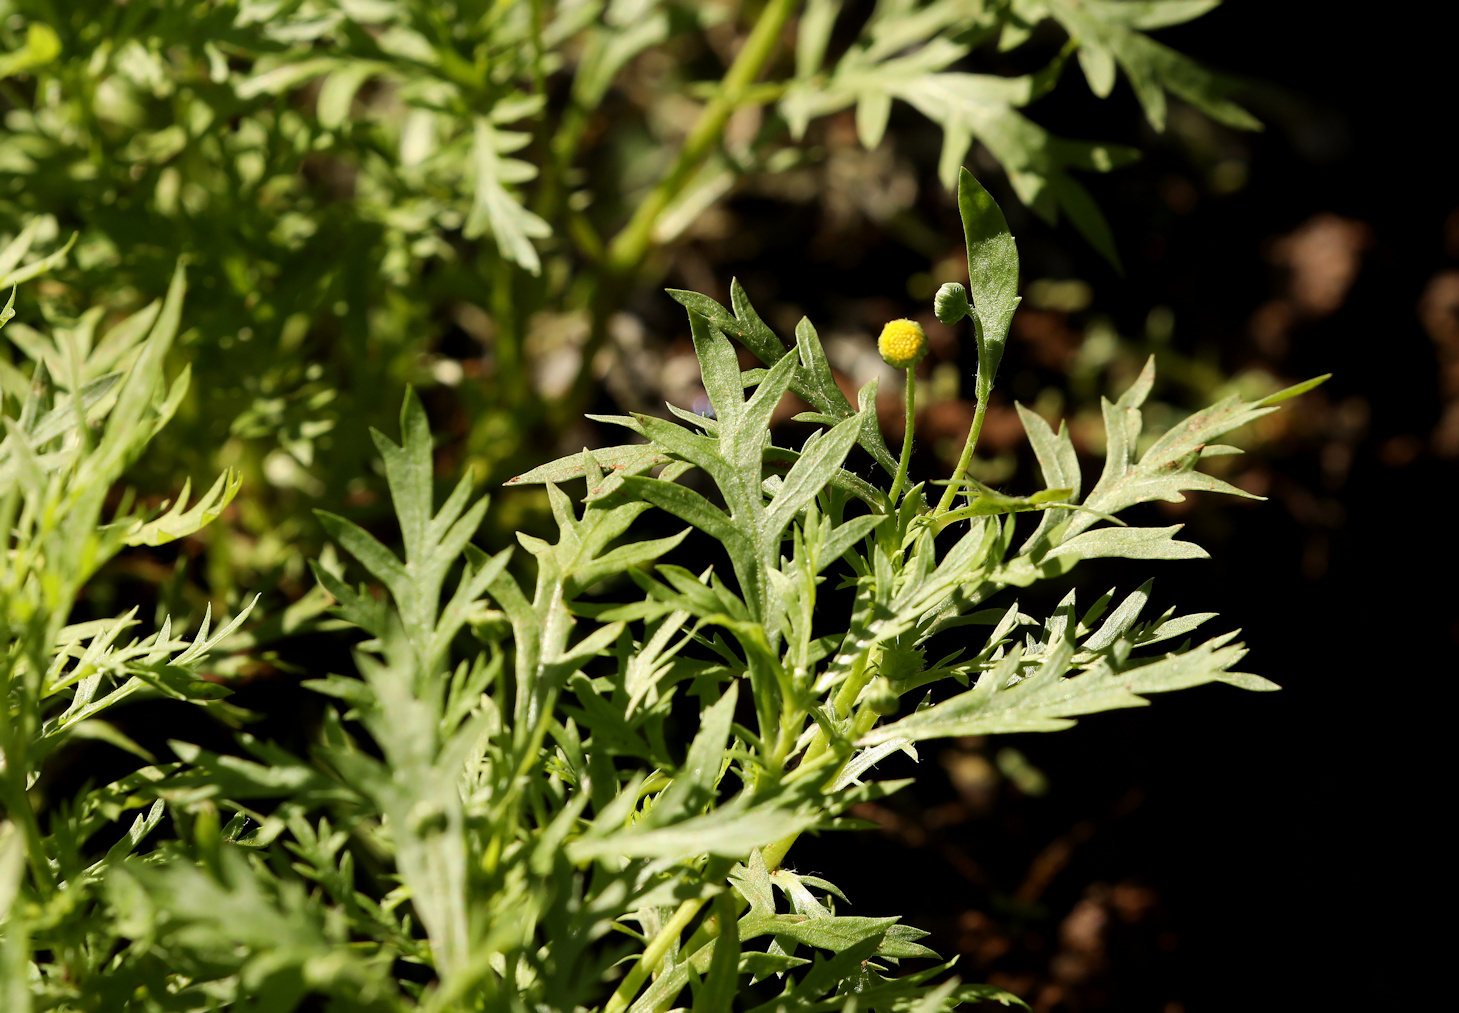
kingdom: Plantae
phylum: Tracheophyta
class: Magnoliopsida
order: Asterales
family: Asteraceae
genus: Euryops
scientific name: Euryops chrysanthemoides
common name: Bull's eye
